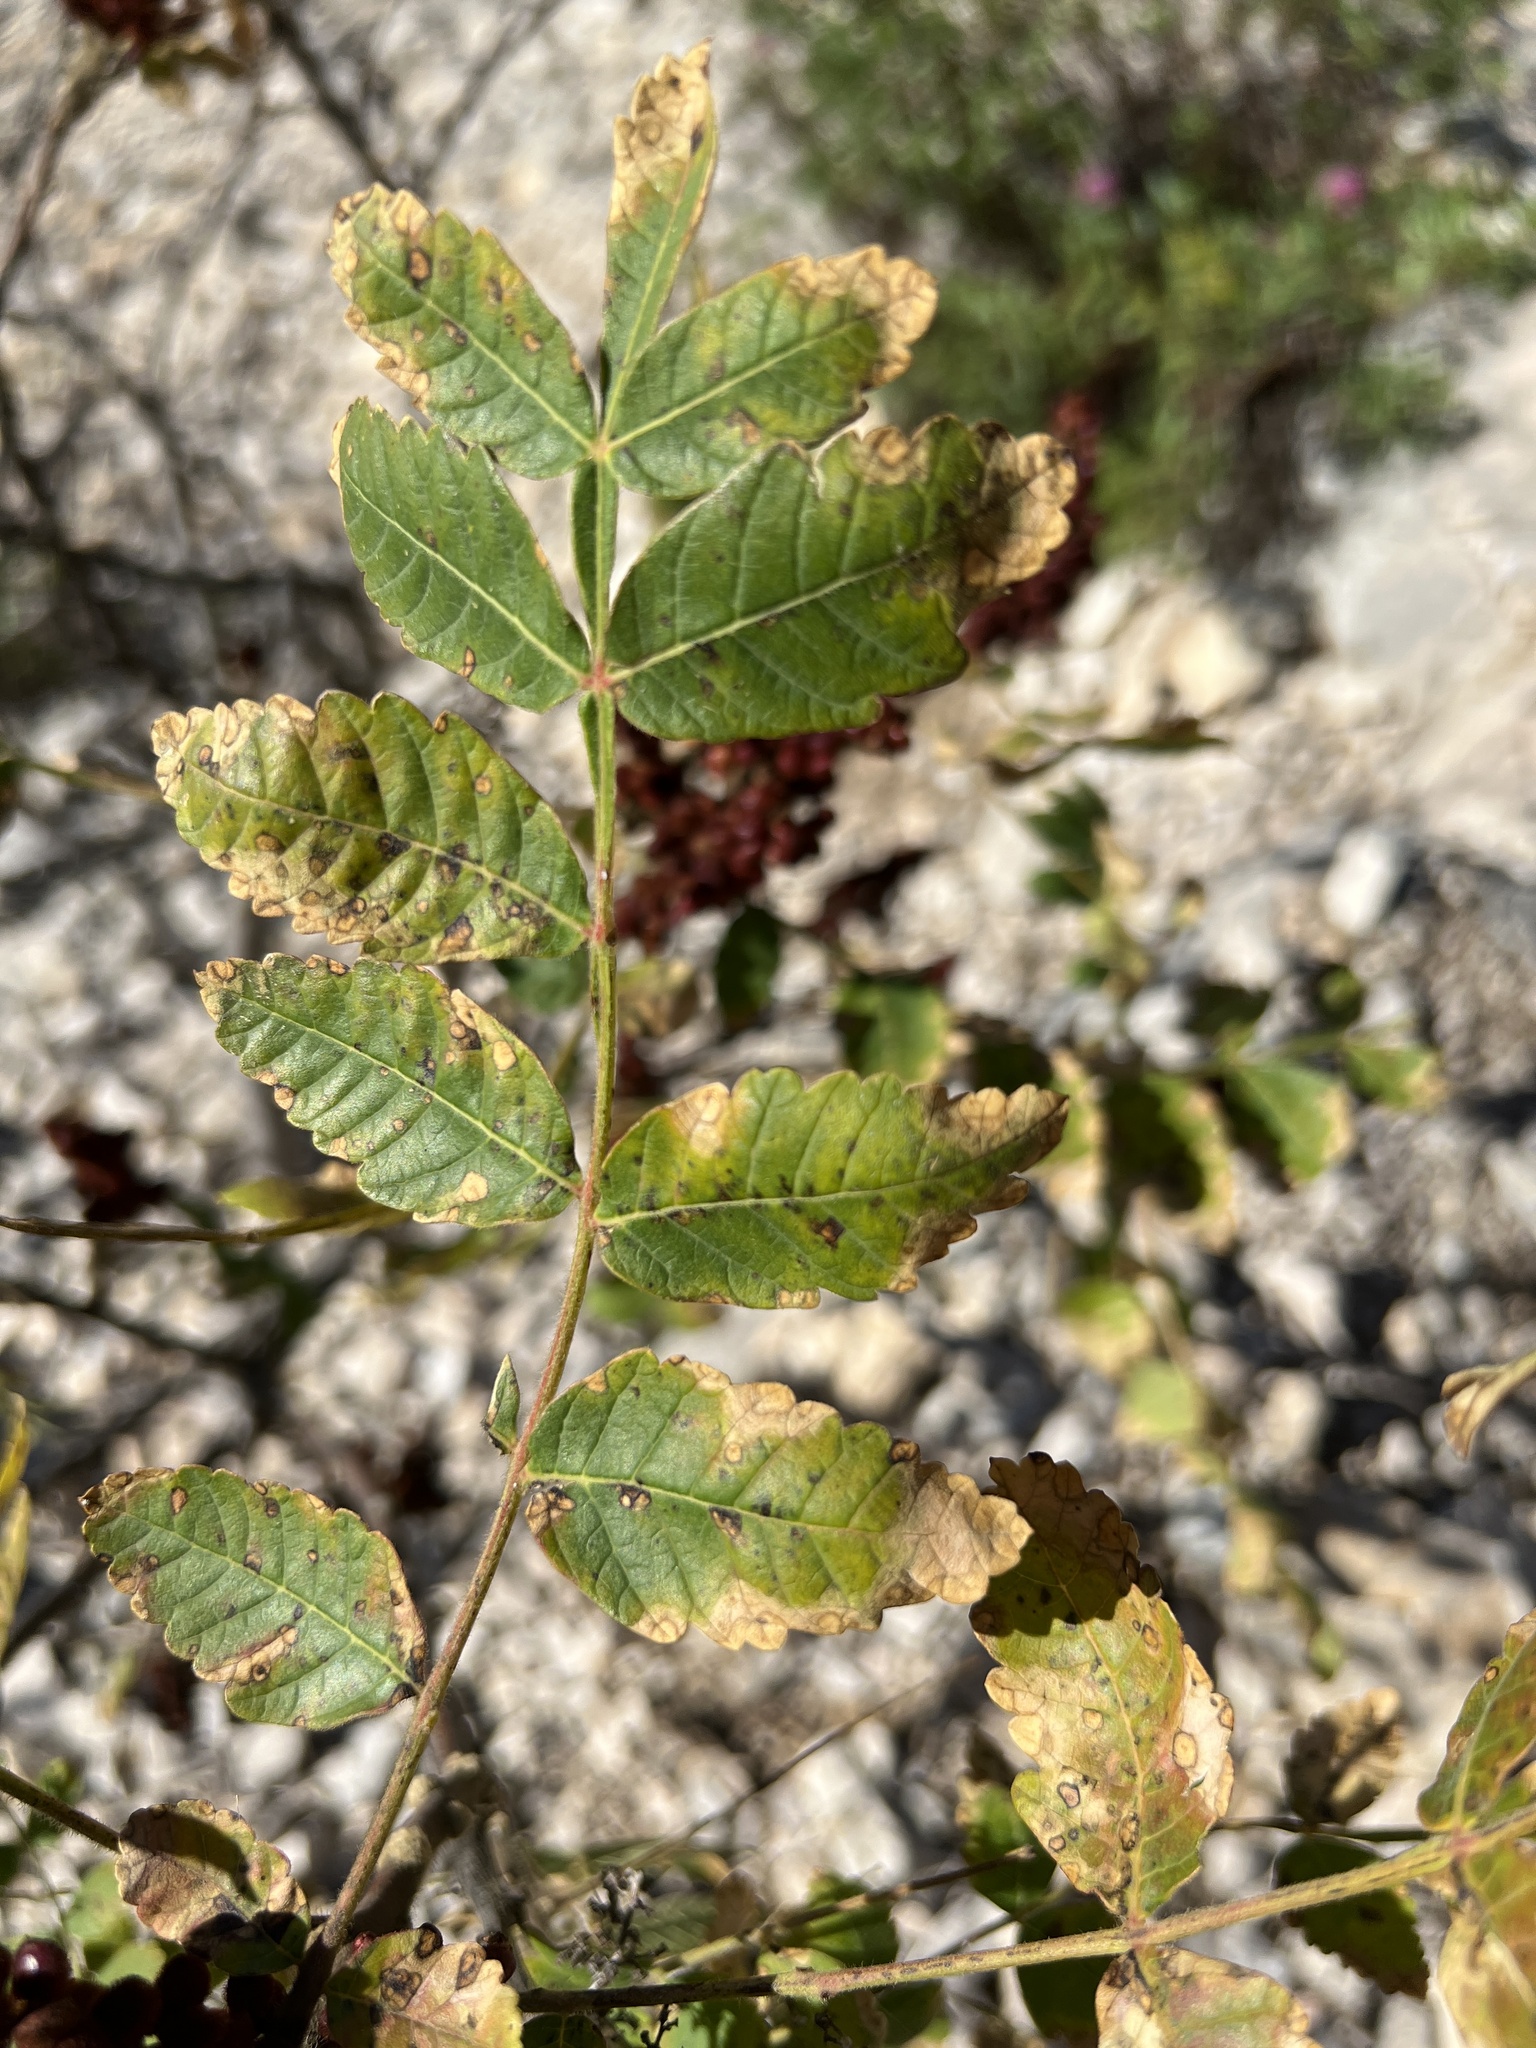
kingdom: Plantae
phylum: Tracheophyta
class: Magnoliopsida
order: Sapindales
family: Anacardiaceae
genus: Rhus
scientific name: Rhus coriaria
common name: Tanner's sumach
